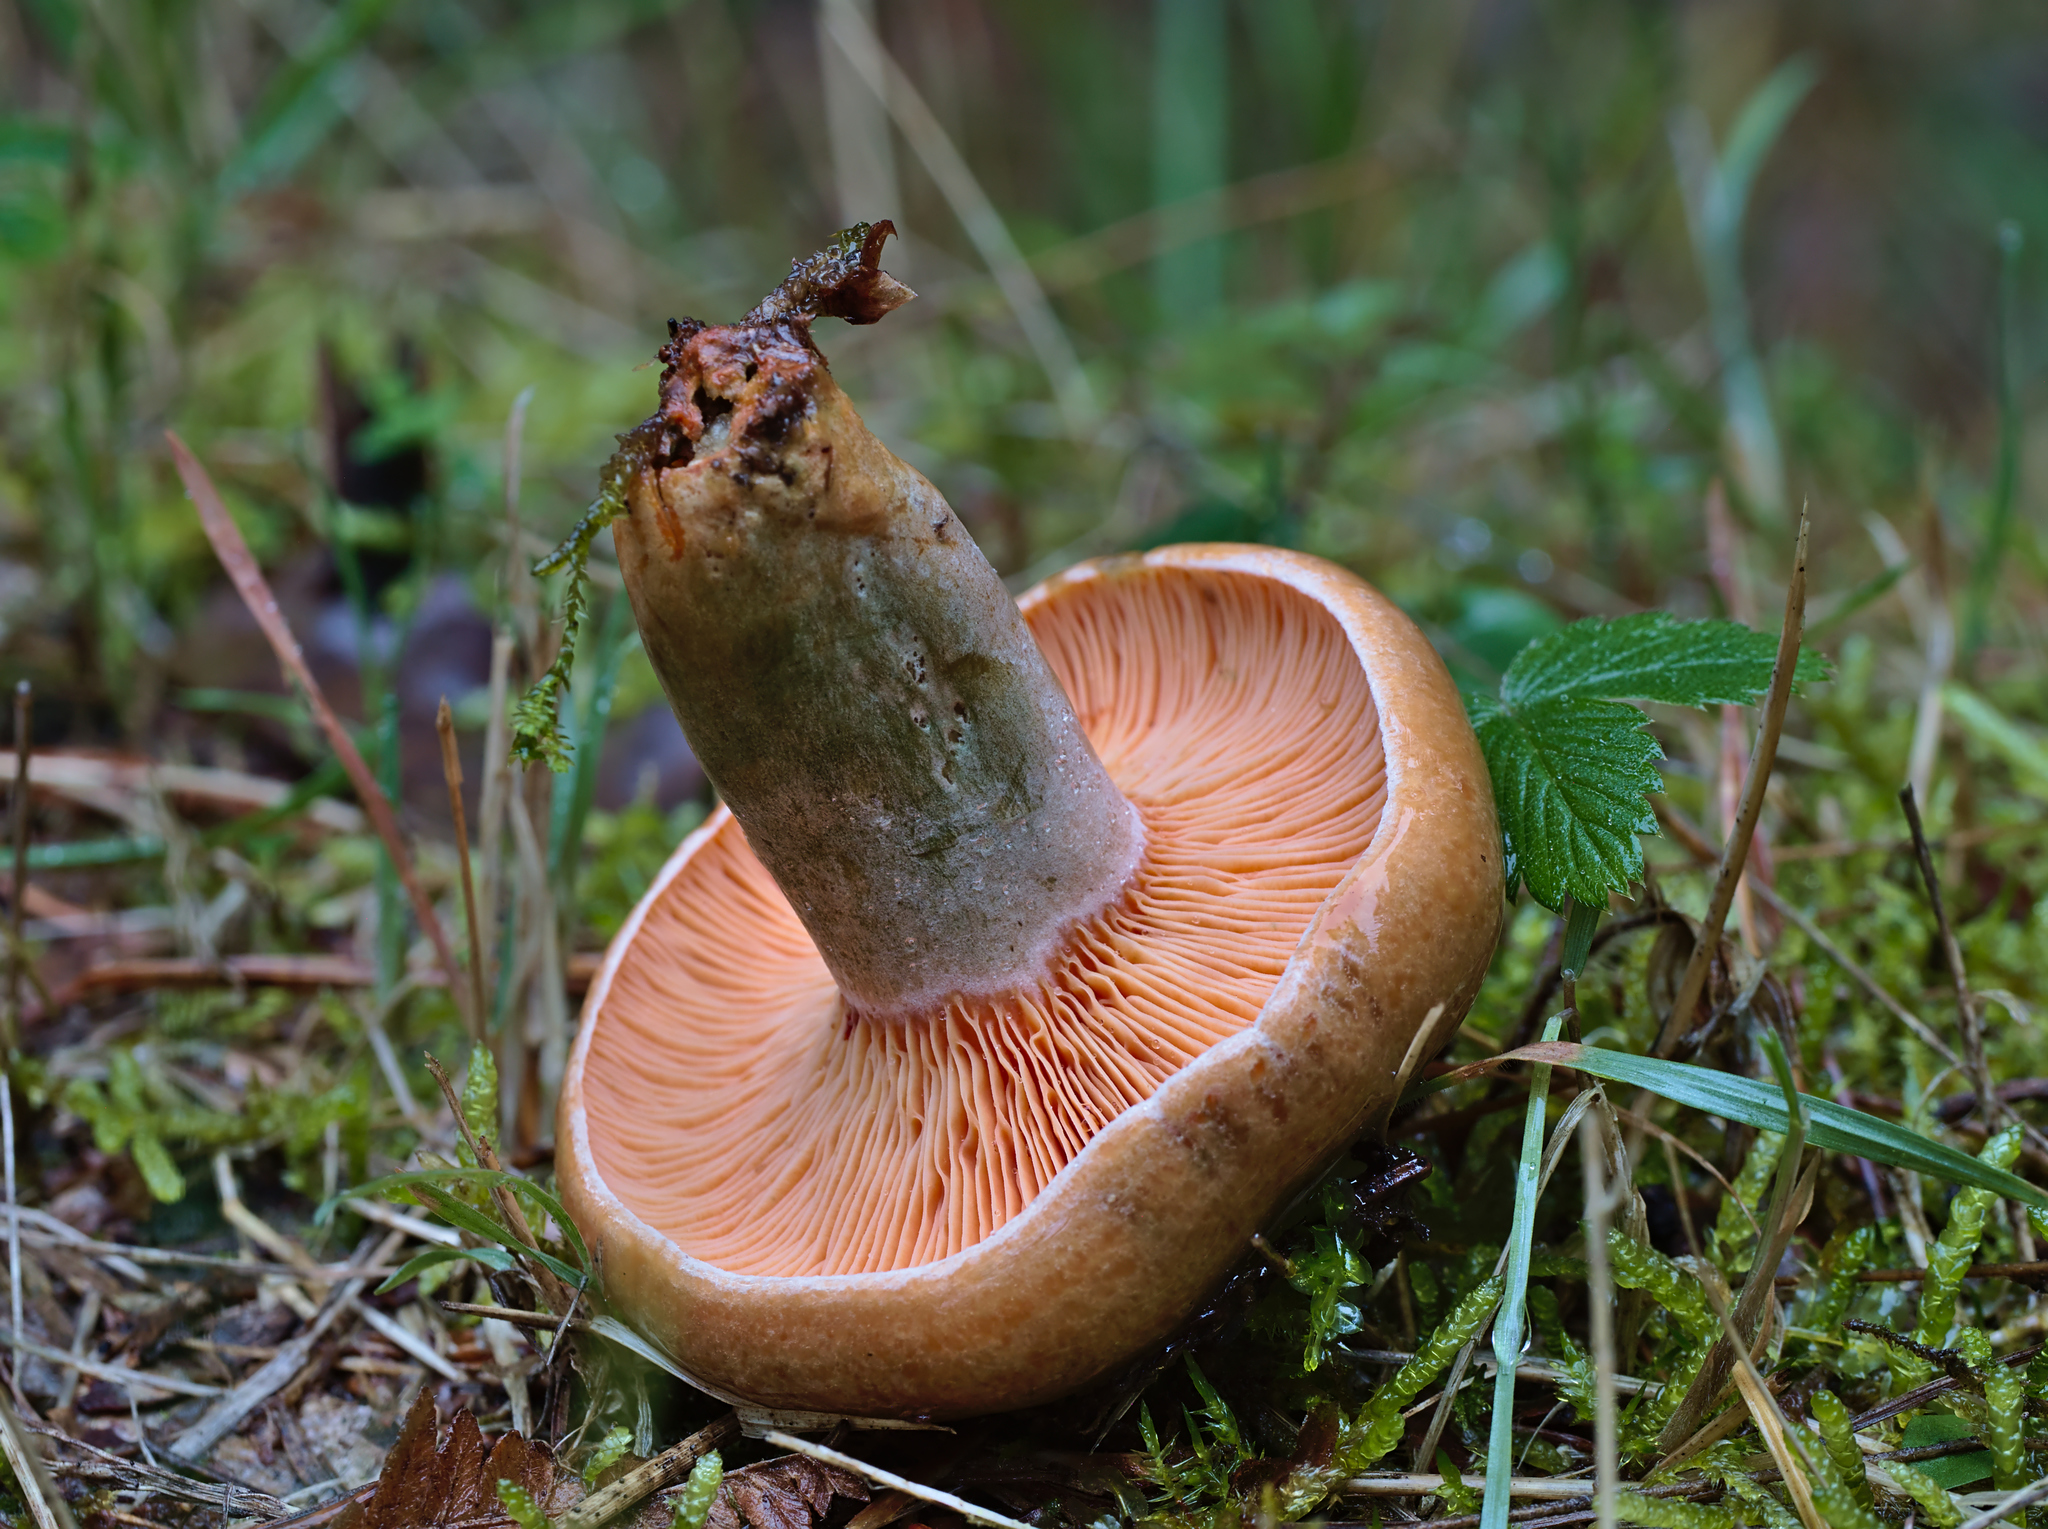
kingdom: Fungi
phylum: Basidiomycota
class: Agaricomycetes
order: Russulales
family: Russulaceae
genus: Lactarius
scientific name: Lactarius deterrimus
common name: False saffron milkcap
